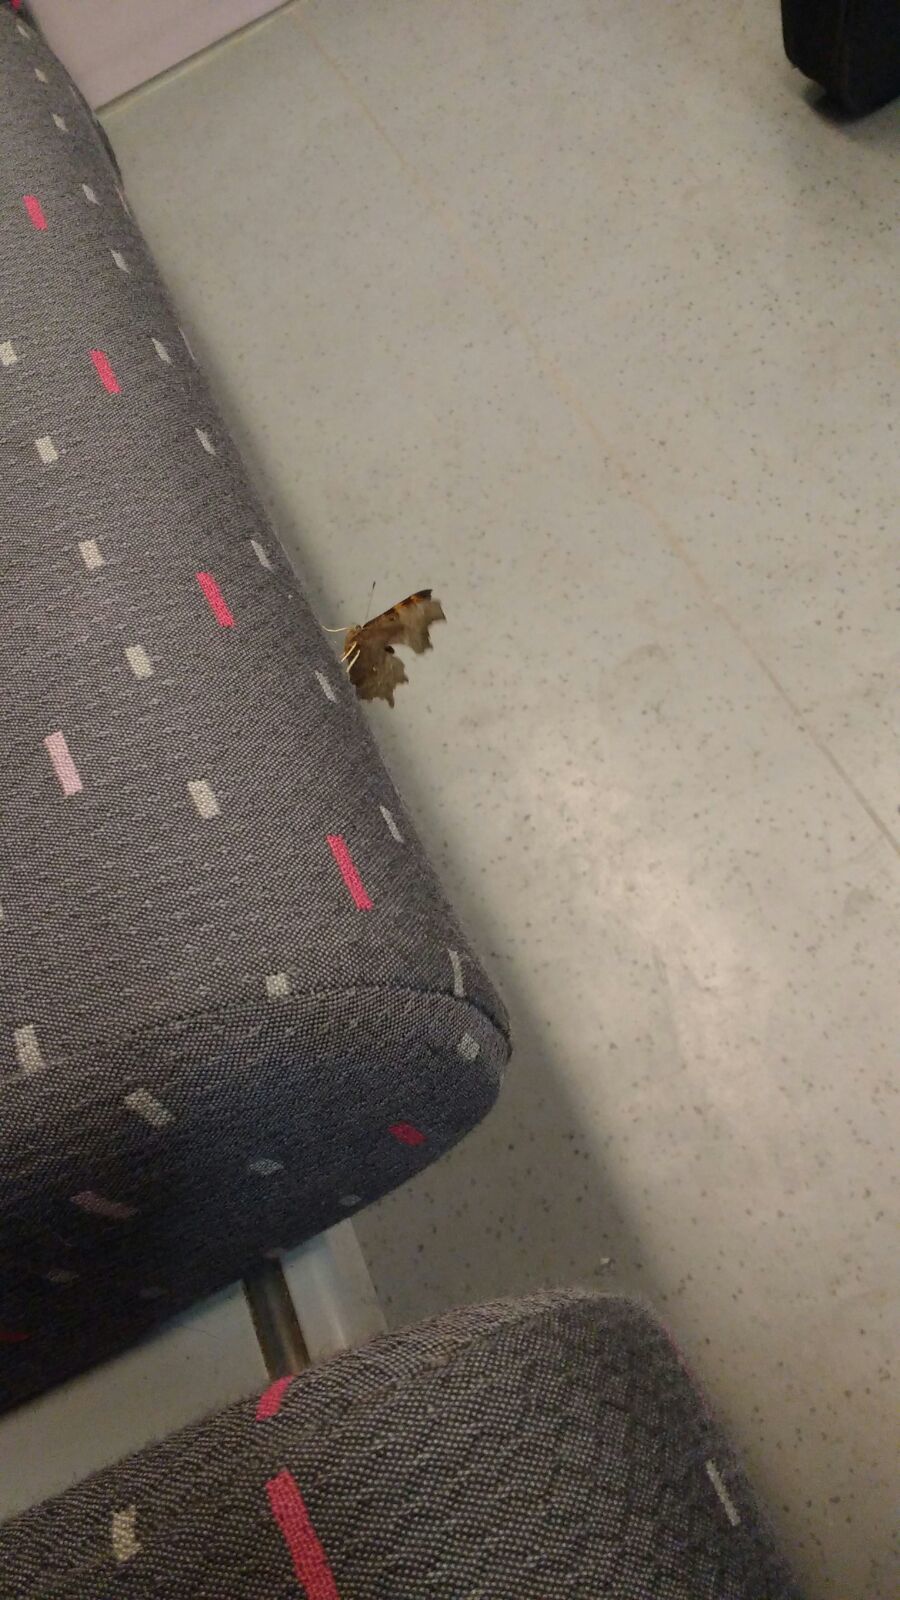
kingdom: Animalia
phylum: Arthropoda
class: Insecta
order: Lepidoptera
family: Nymphalidae
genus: Polygonia
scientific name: Polygonia c-album
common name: Comma
